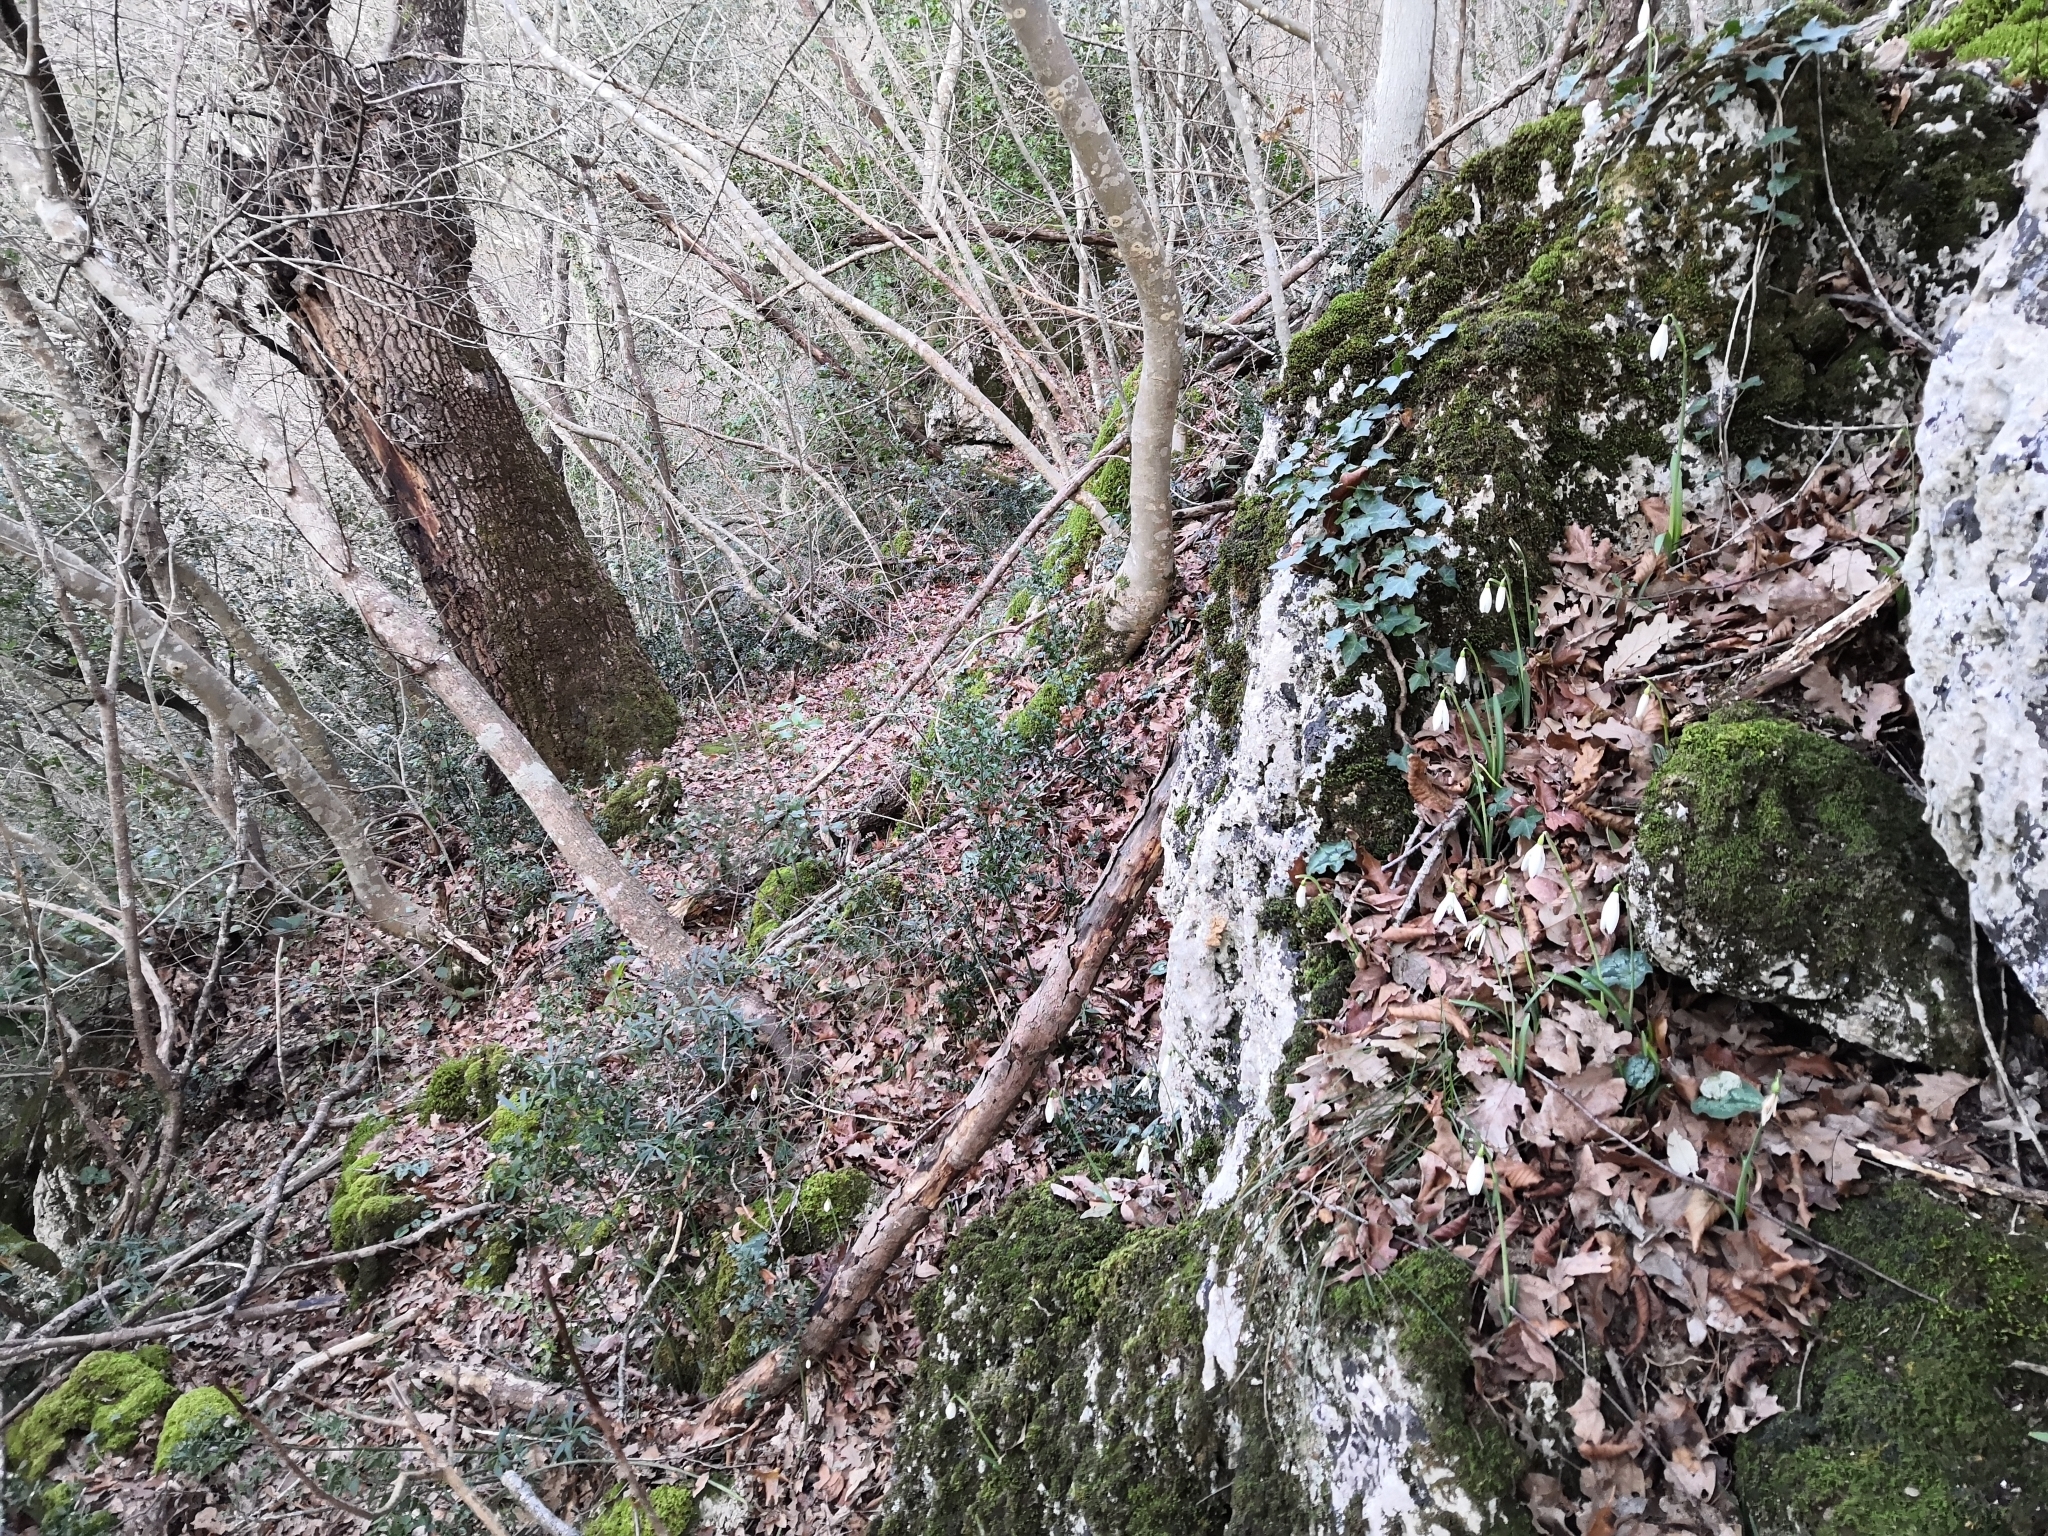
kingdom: Plantae
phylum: Tracheophyta
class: Liliopsida
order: Asparagales
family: Amaryllidaceae
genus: Galanthus
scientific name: Galanthus reginae-olgae
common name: Queen olga's snowdrop
